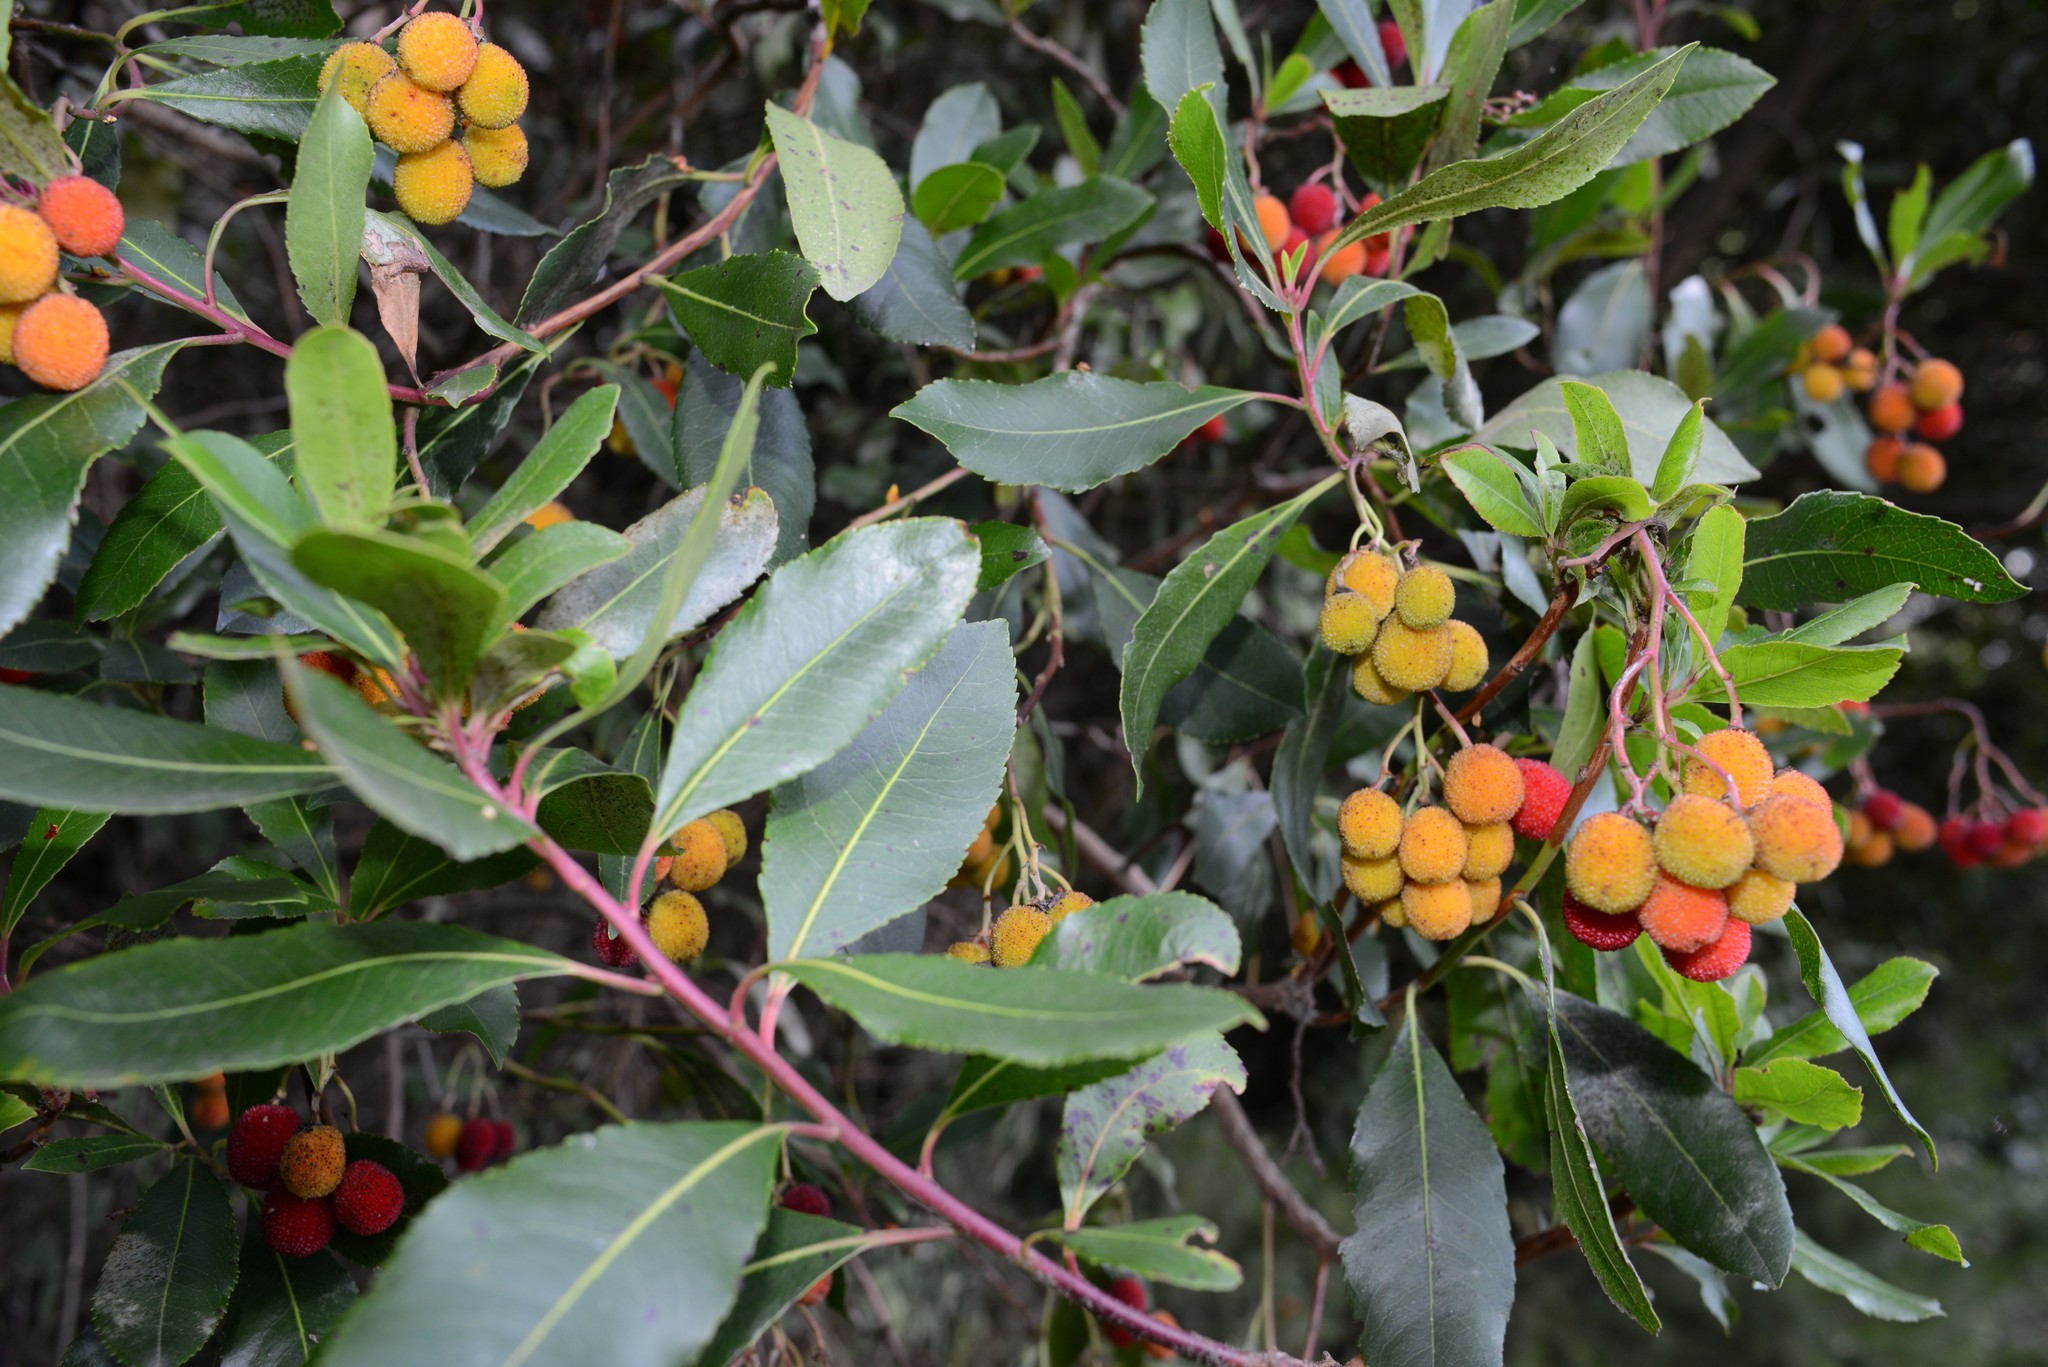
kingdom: Plantae
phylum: Tracheophyta
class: Magnoliopsida
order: Ericales
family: Ericaceae
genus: Arbutus
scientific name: Arbutus unedo
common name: Strawberry-tree
